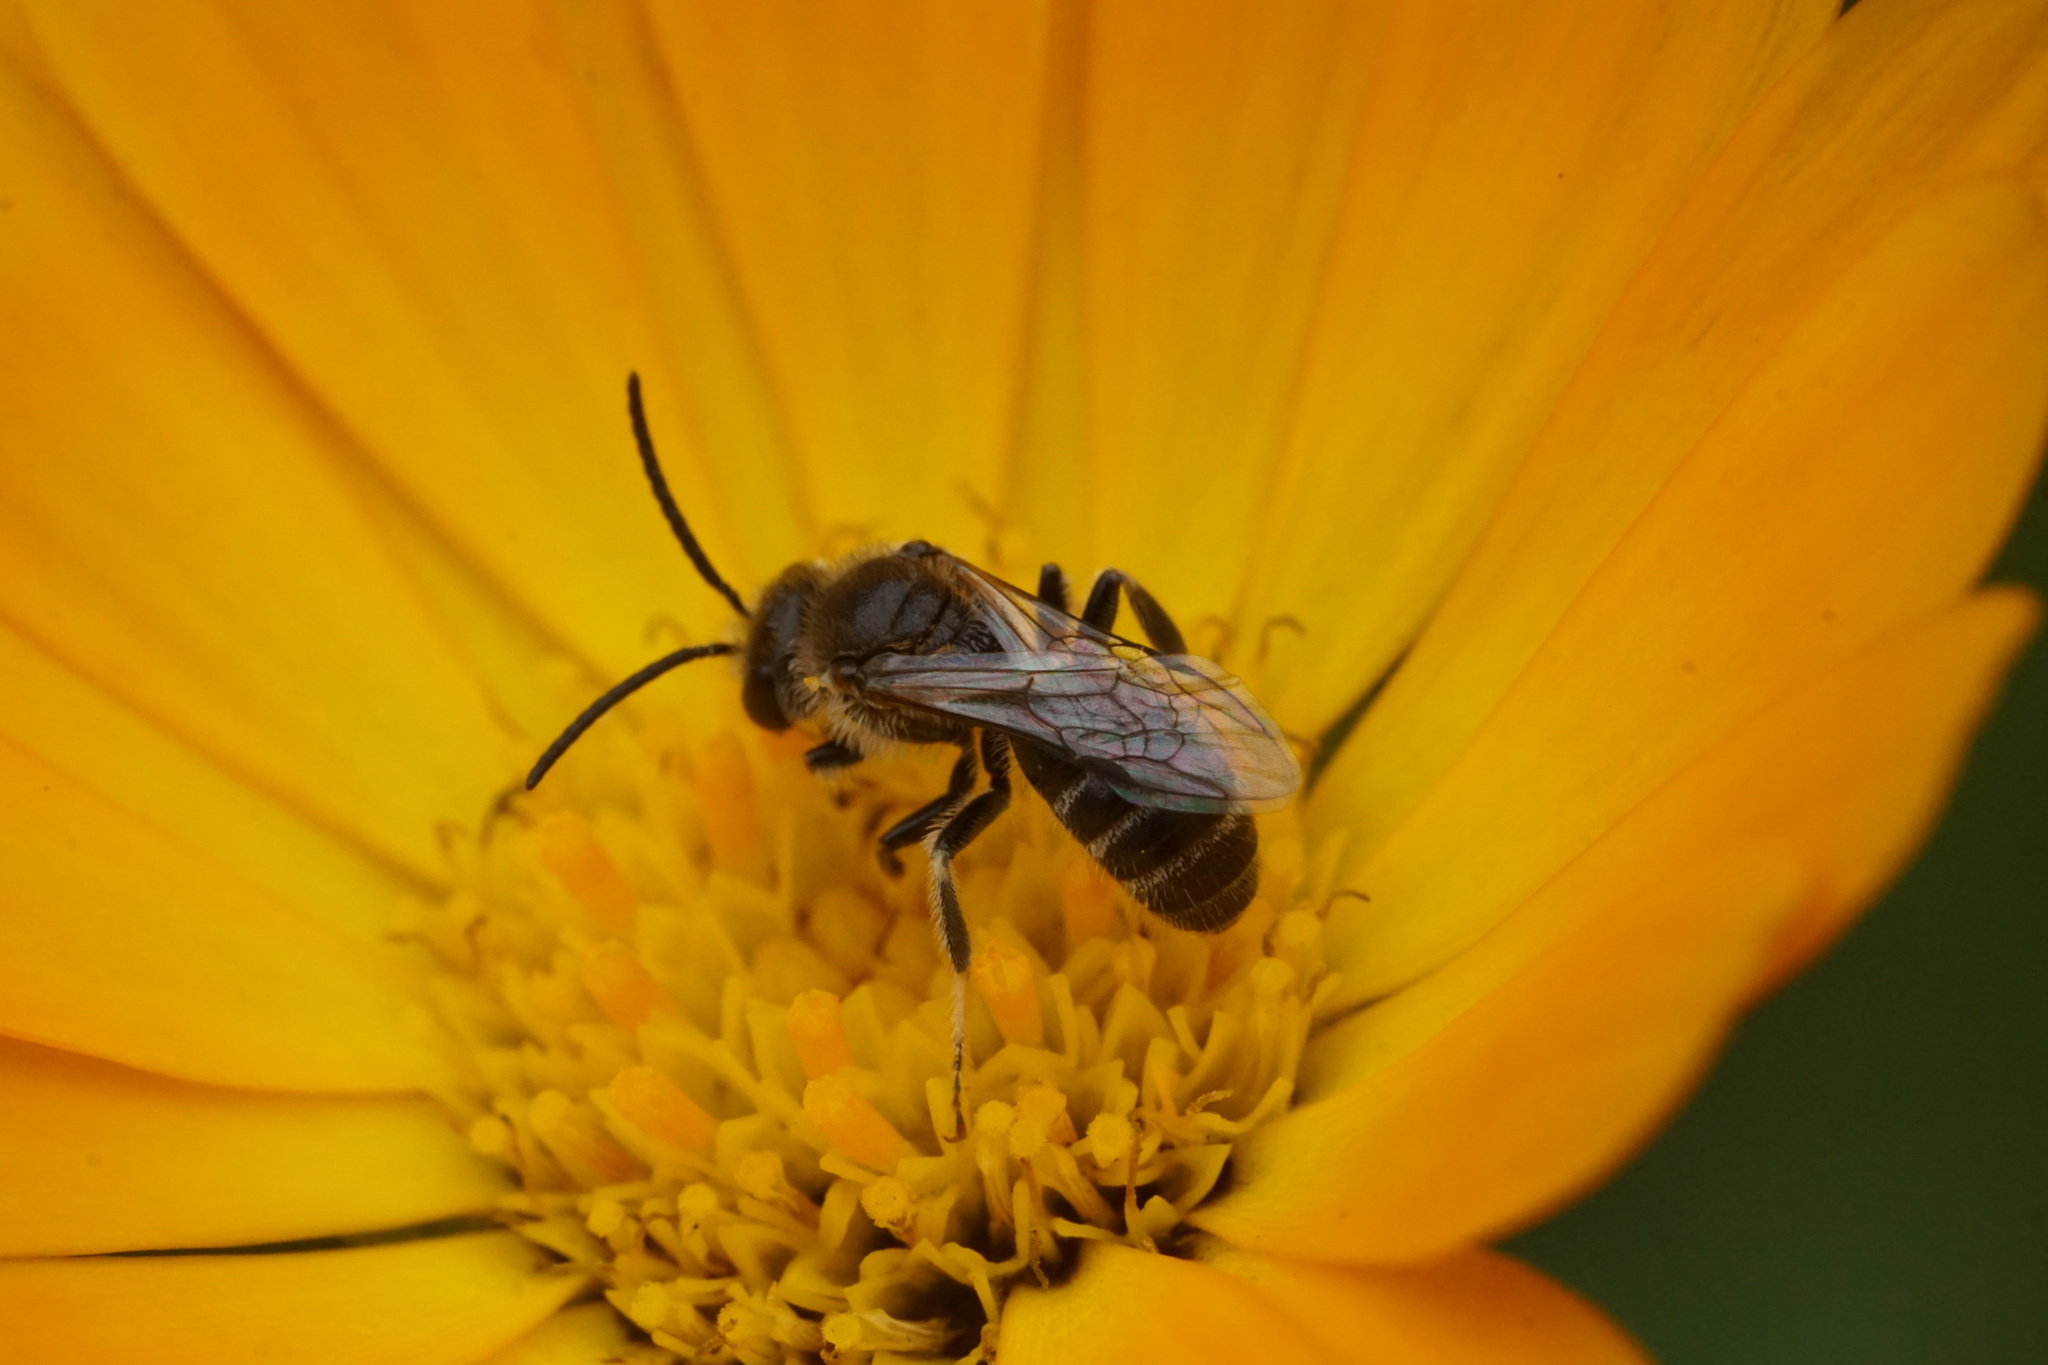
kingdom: Animalia
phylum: Arthropoda
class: Insecta
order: Hymenoptera
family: Halictidae
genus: Lasioglossum
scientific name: Lasioglossum leucozonium
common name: White-zoned furrow bee
